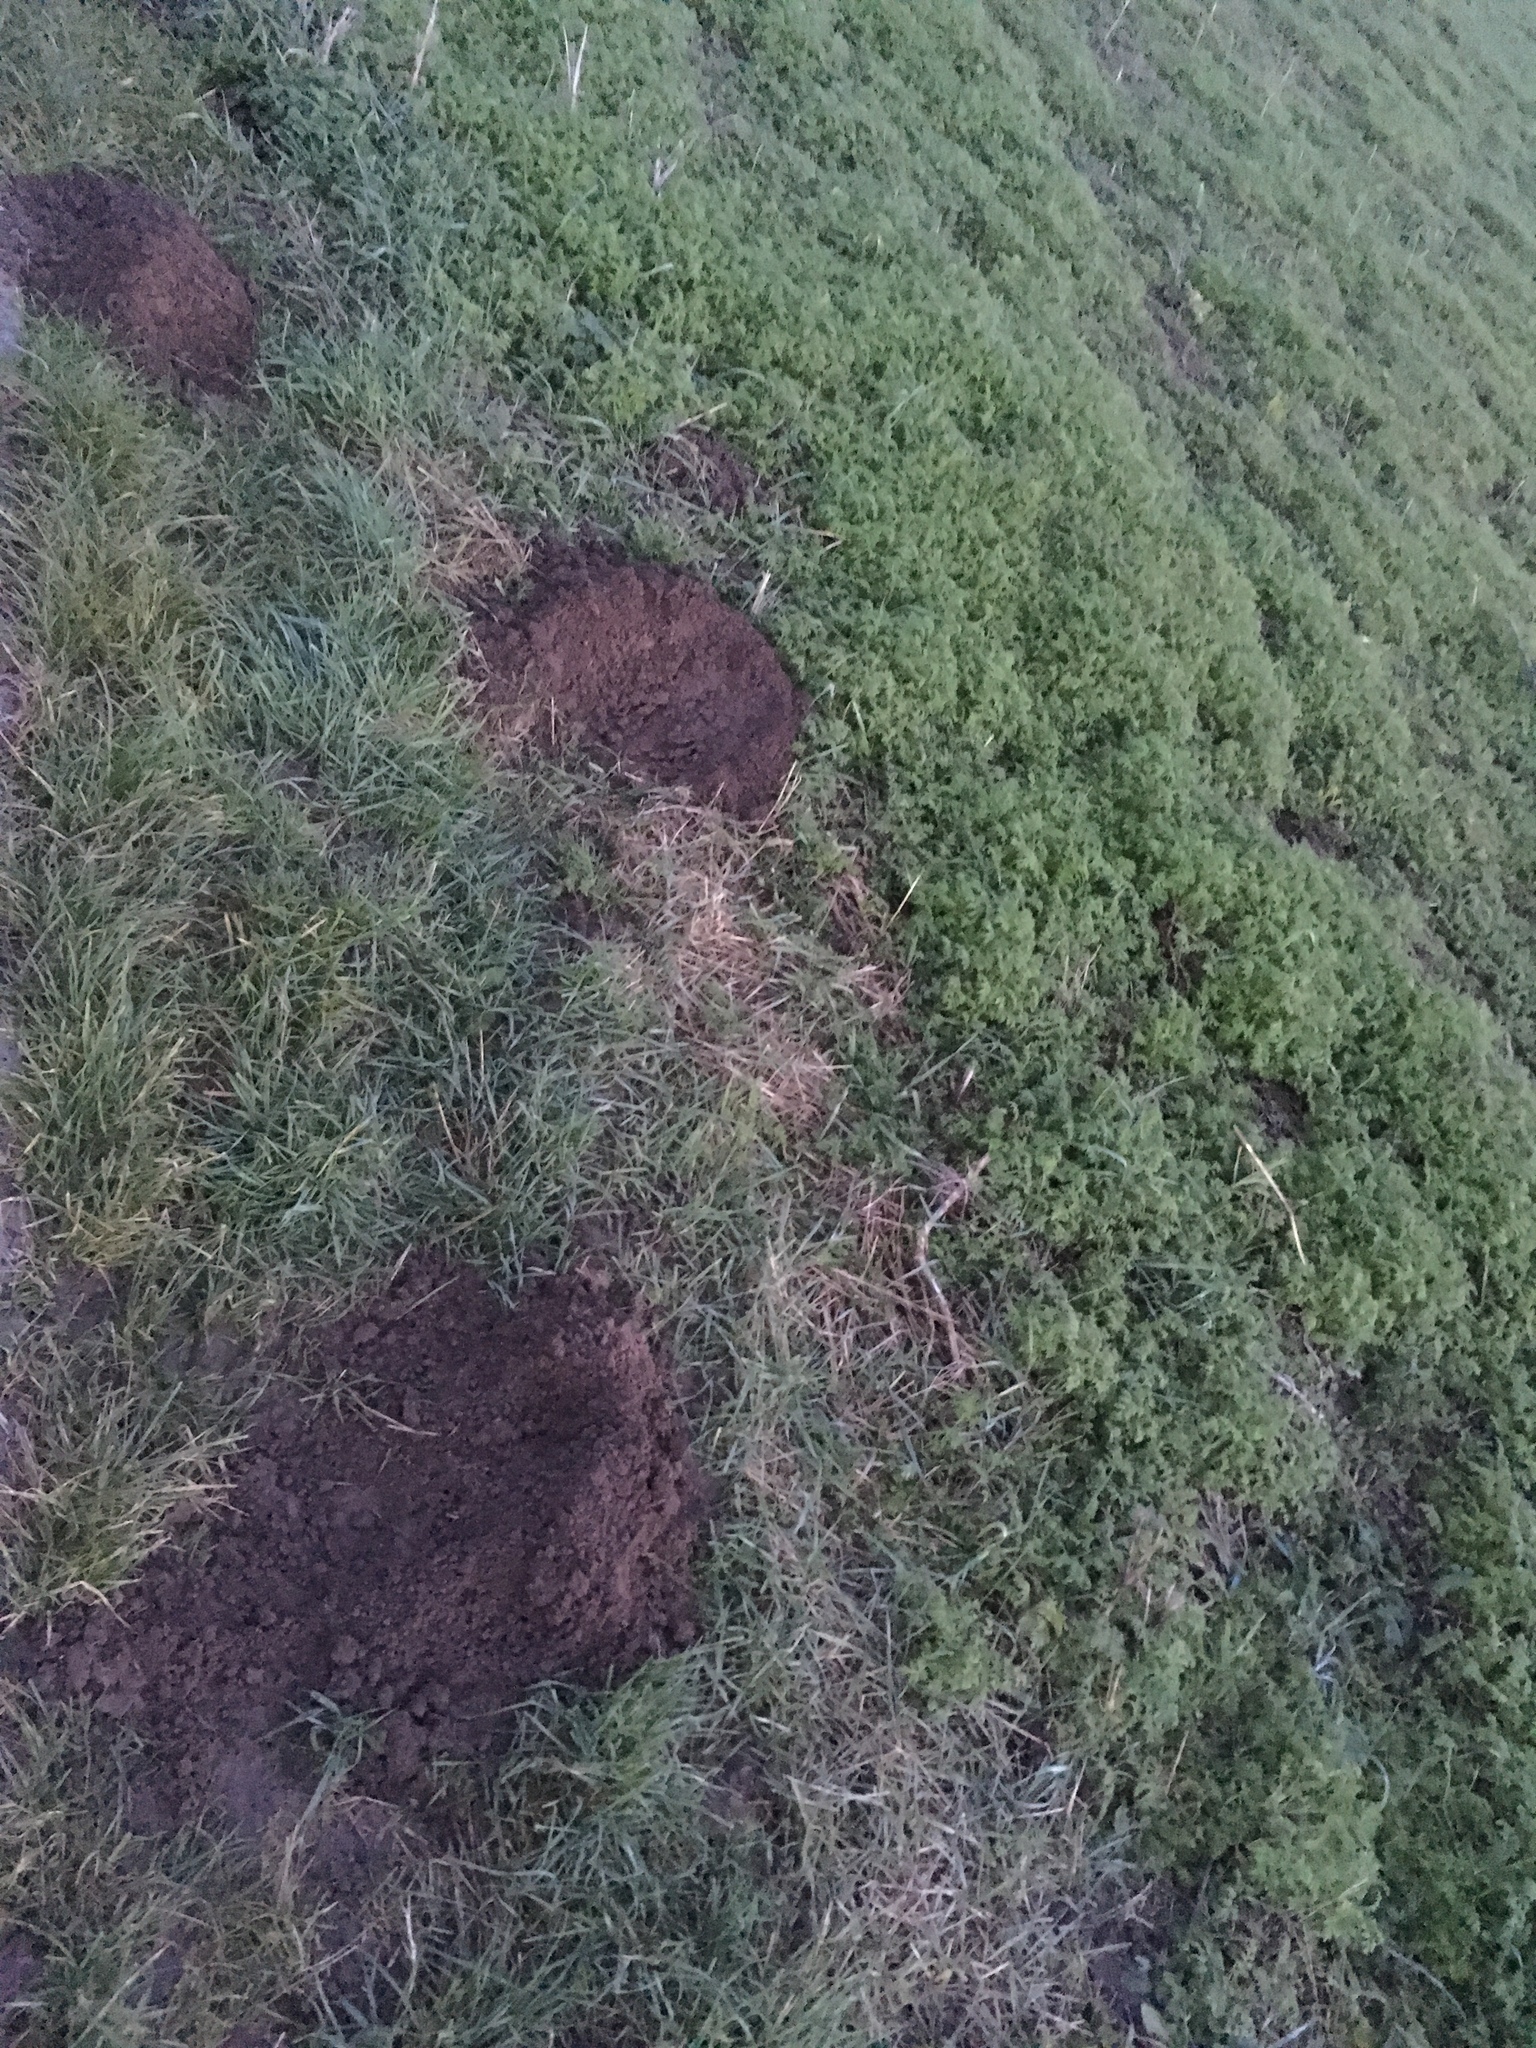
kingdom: Animalia
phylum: Chordata
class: Mammalia
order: Soricomorpha
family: Talpidae
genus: Talpa
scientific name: Talpa europaea
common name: European mole
